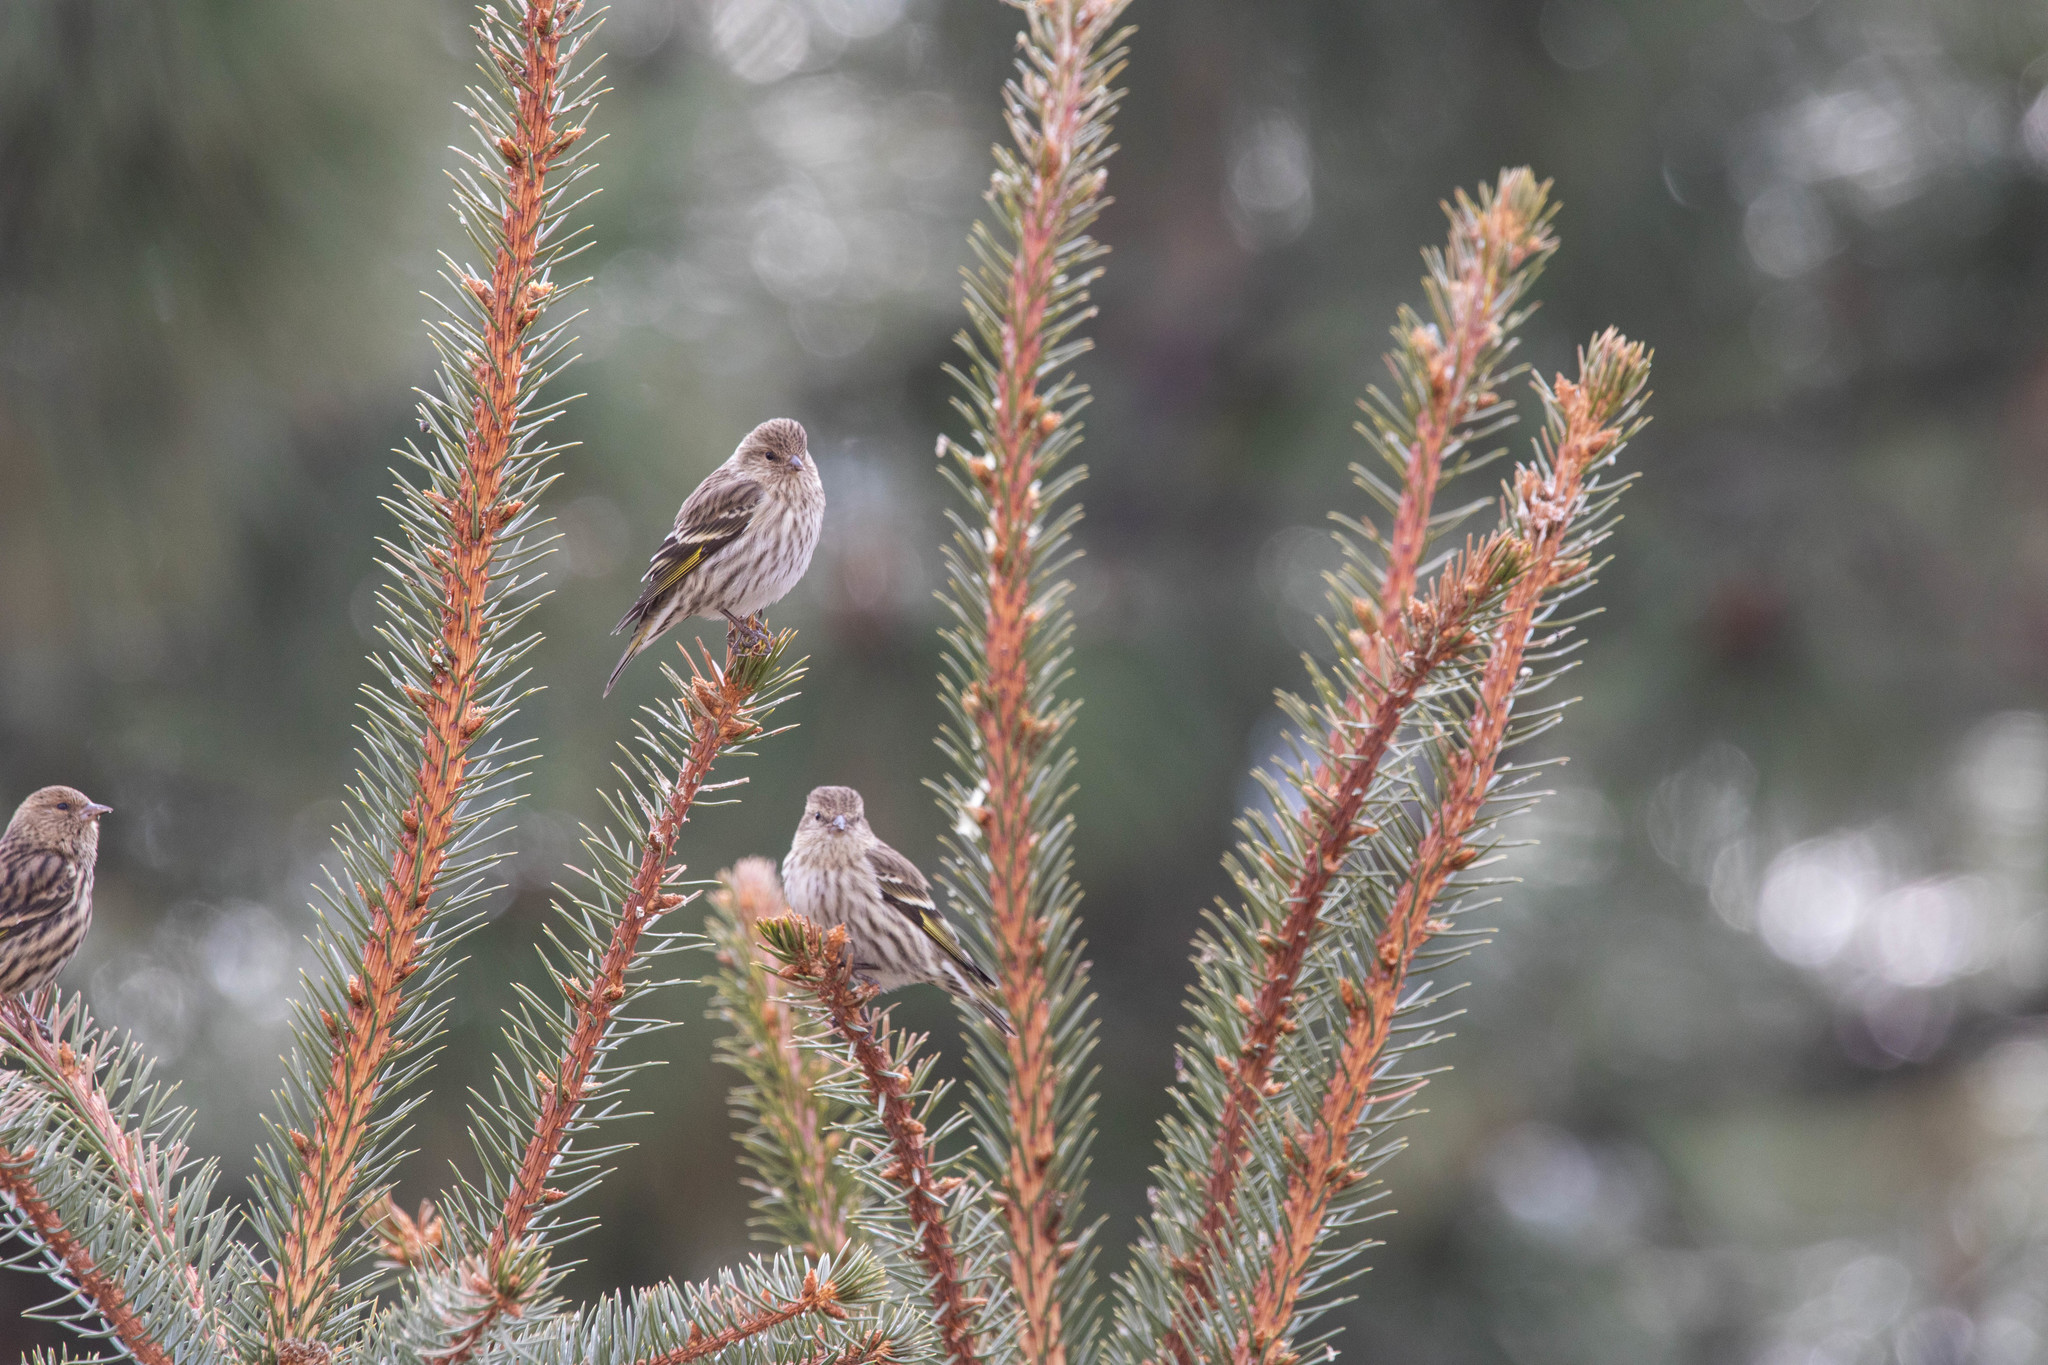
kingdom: Animalia
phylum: Chordata
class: Aves
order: Passeriformes
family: Fringillidae
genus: Spinus
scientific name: Spinus pinus
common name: Pine siskin
